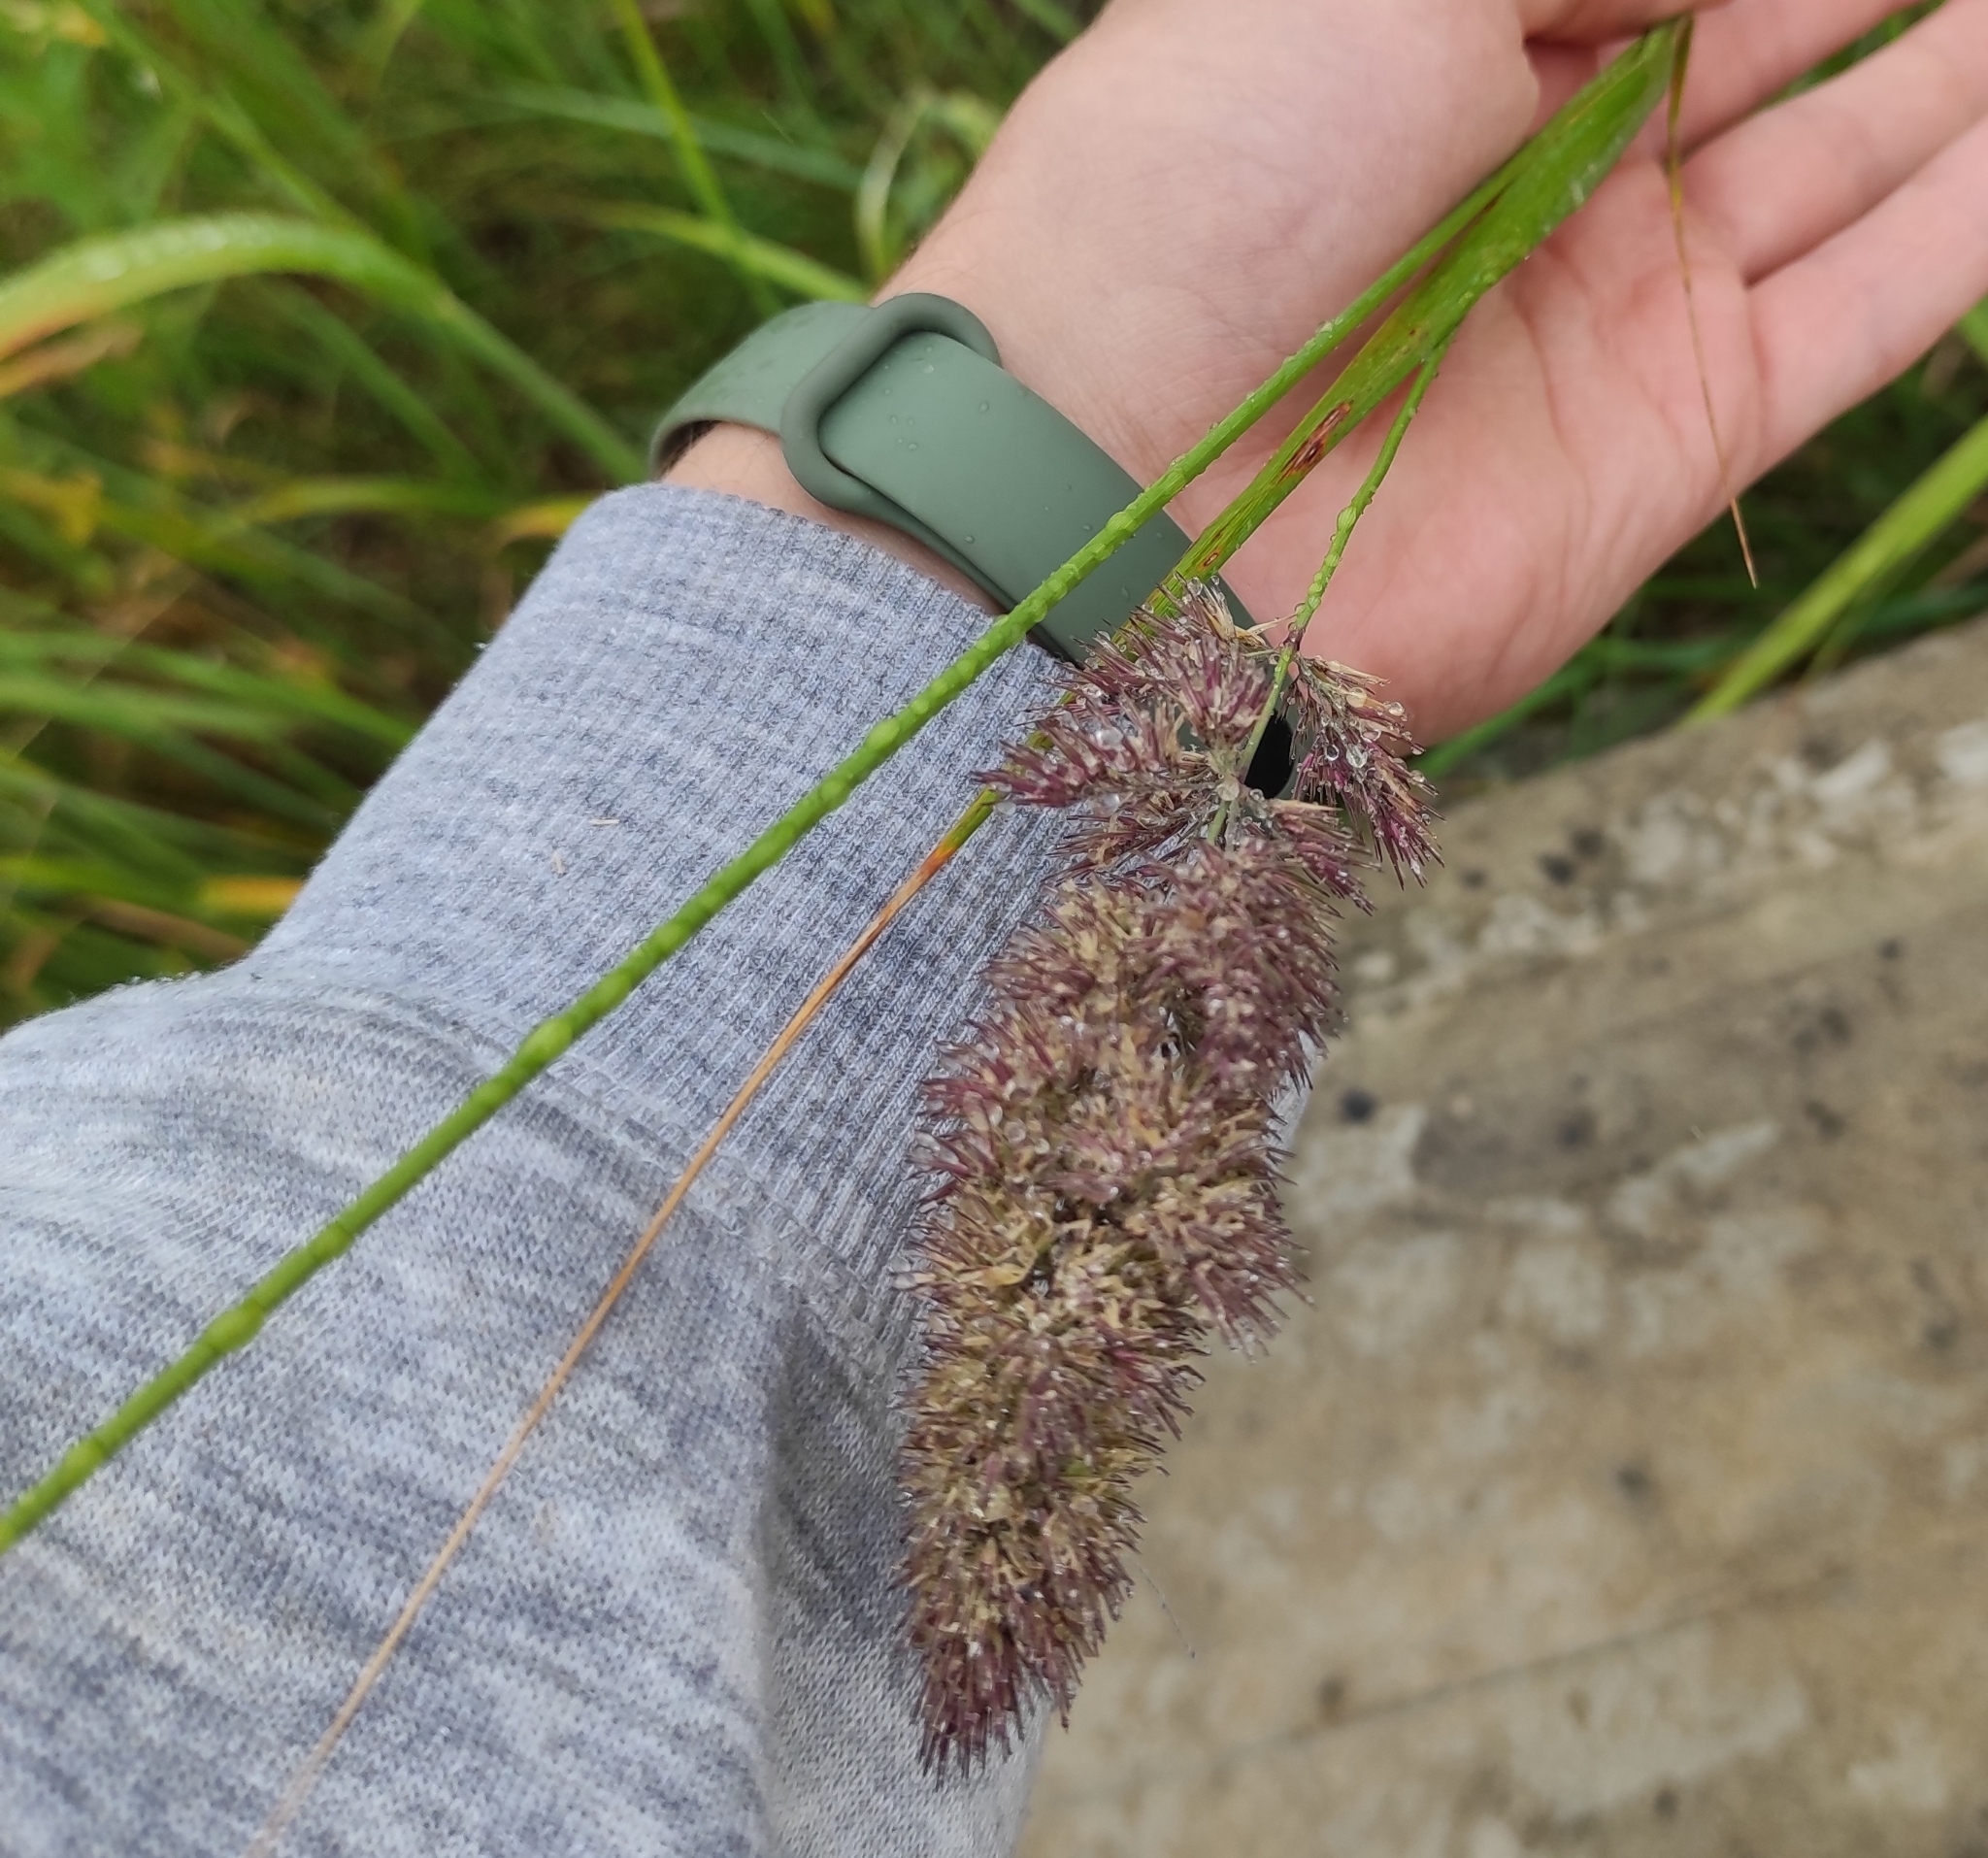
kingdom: Plantae
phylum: Tracheophyta
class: Liliopsida
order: Poales
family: Poaceae
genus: Calamagrostis
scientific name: Calamagrostis extremiorientalis
